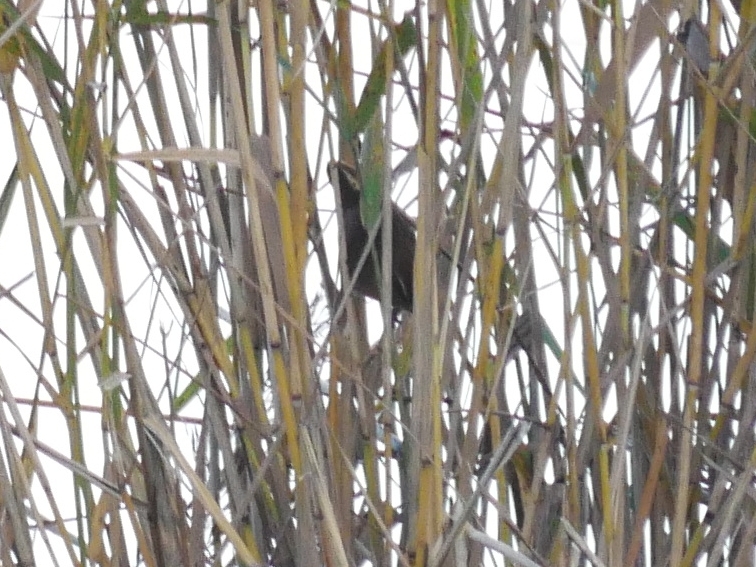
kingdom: Animalia
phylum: Chordata
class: Aves
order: Passeriformes
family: Troglodytidae
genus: Troglodytes
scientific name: Troglodytes troglodytes
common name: Eurasian wren
